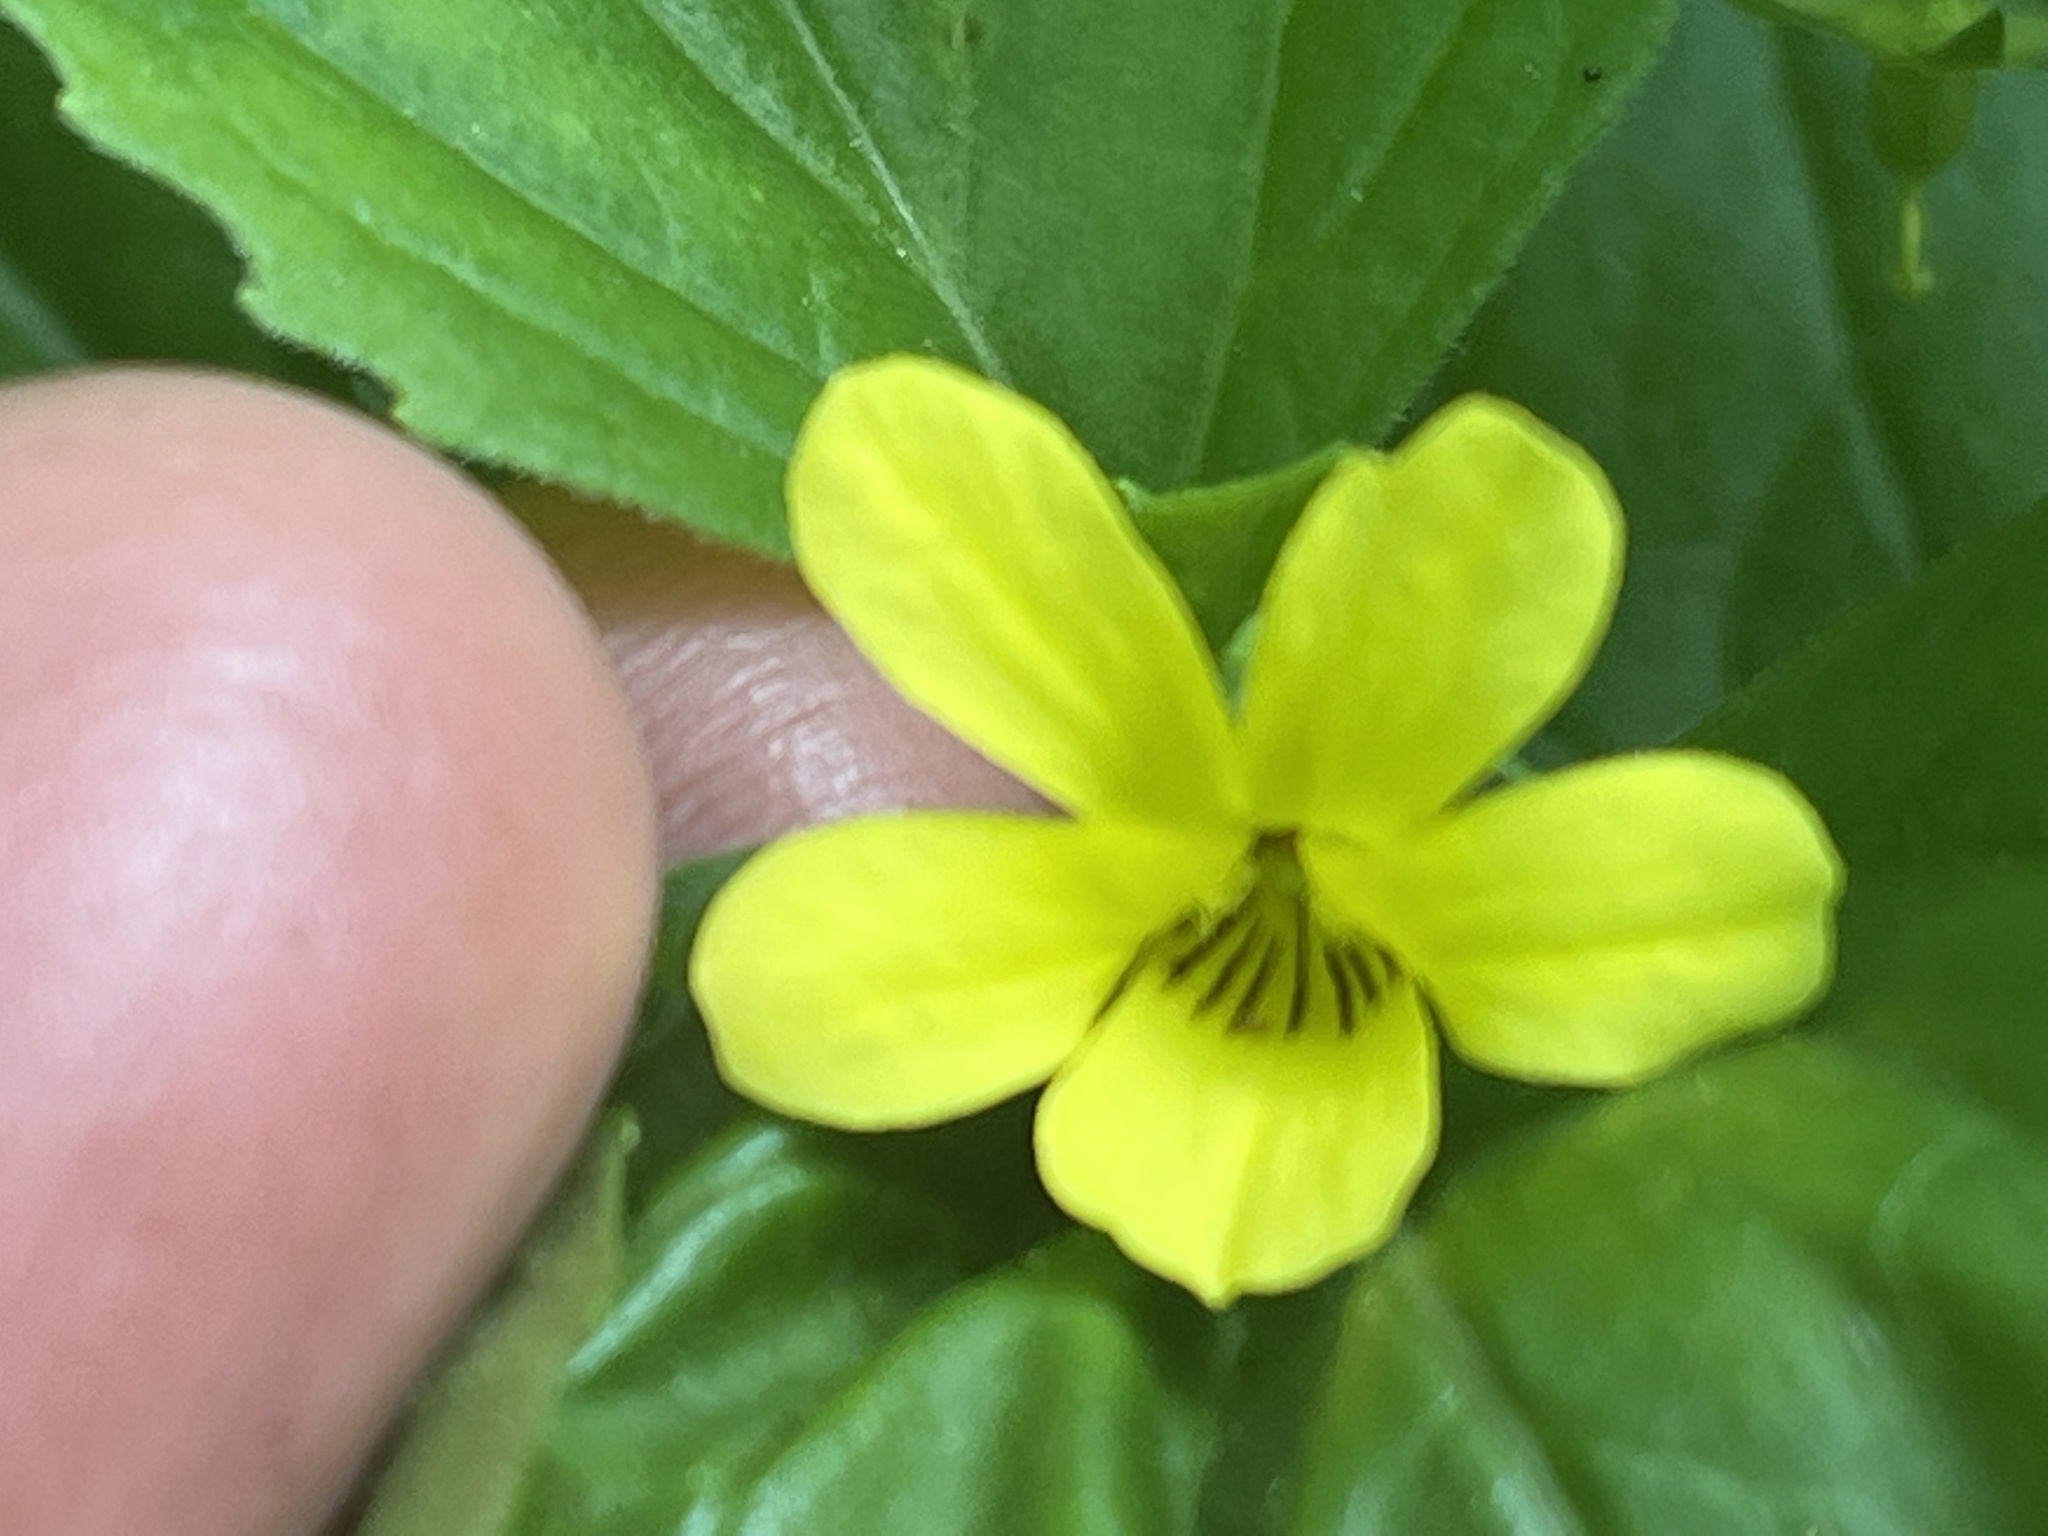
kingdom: Plantae
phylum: Tracheophyta
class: Magnoliopsida
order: Malpighiales
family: Violaceae
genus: Viola
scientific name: Viola eriocarpa
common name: Smooth yellow violet
